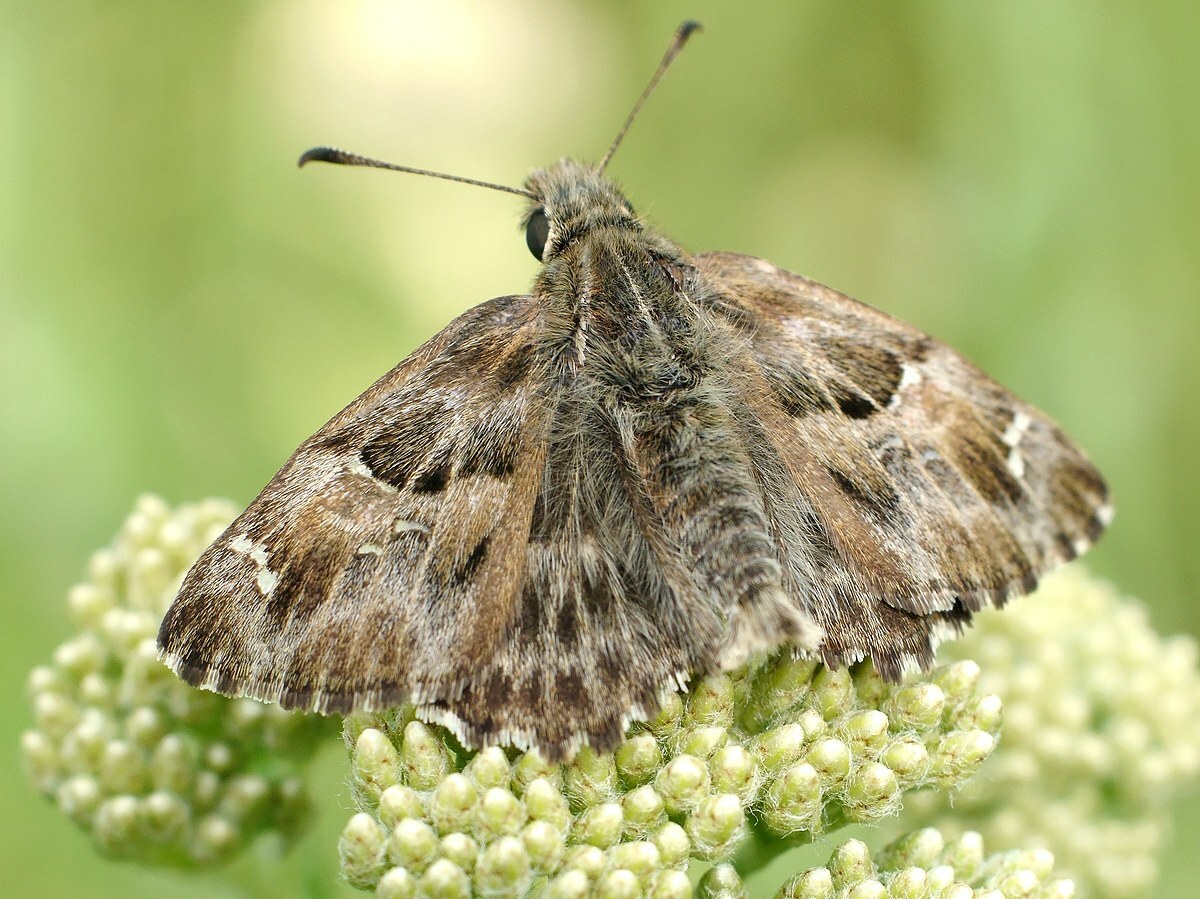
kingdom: Animalia
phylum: Arthropoda
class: Insecta
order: Lepidoptera
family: Hesperiidae
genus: Carcharodus
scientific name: Carcharodus alceae
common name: Mallow skipper
